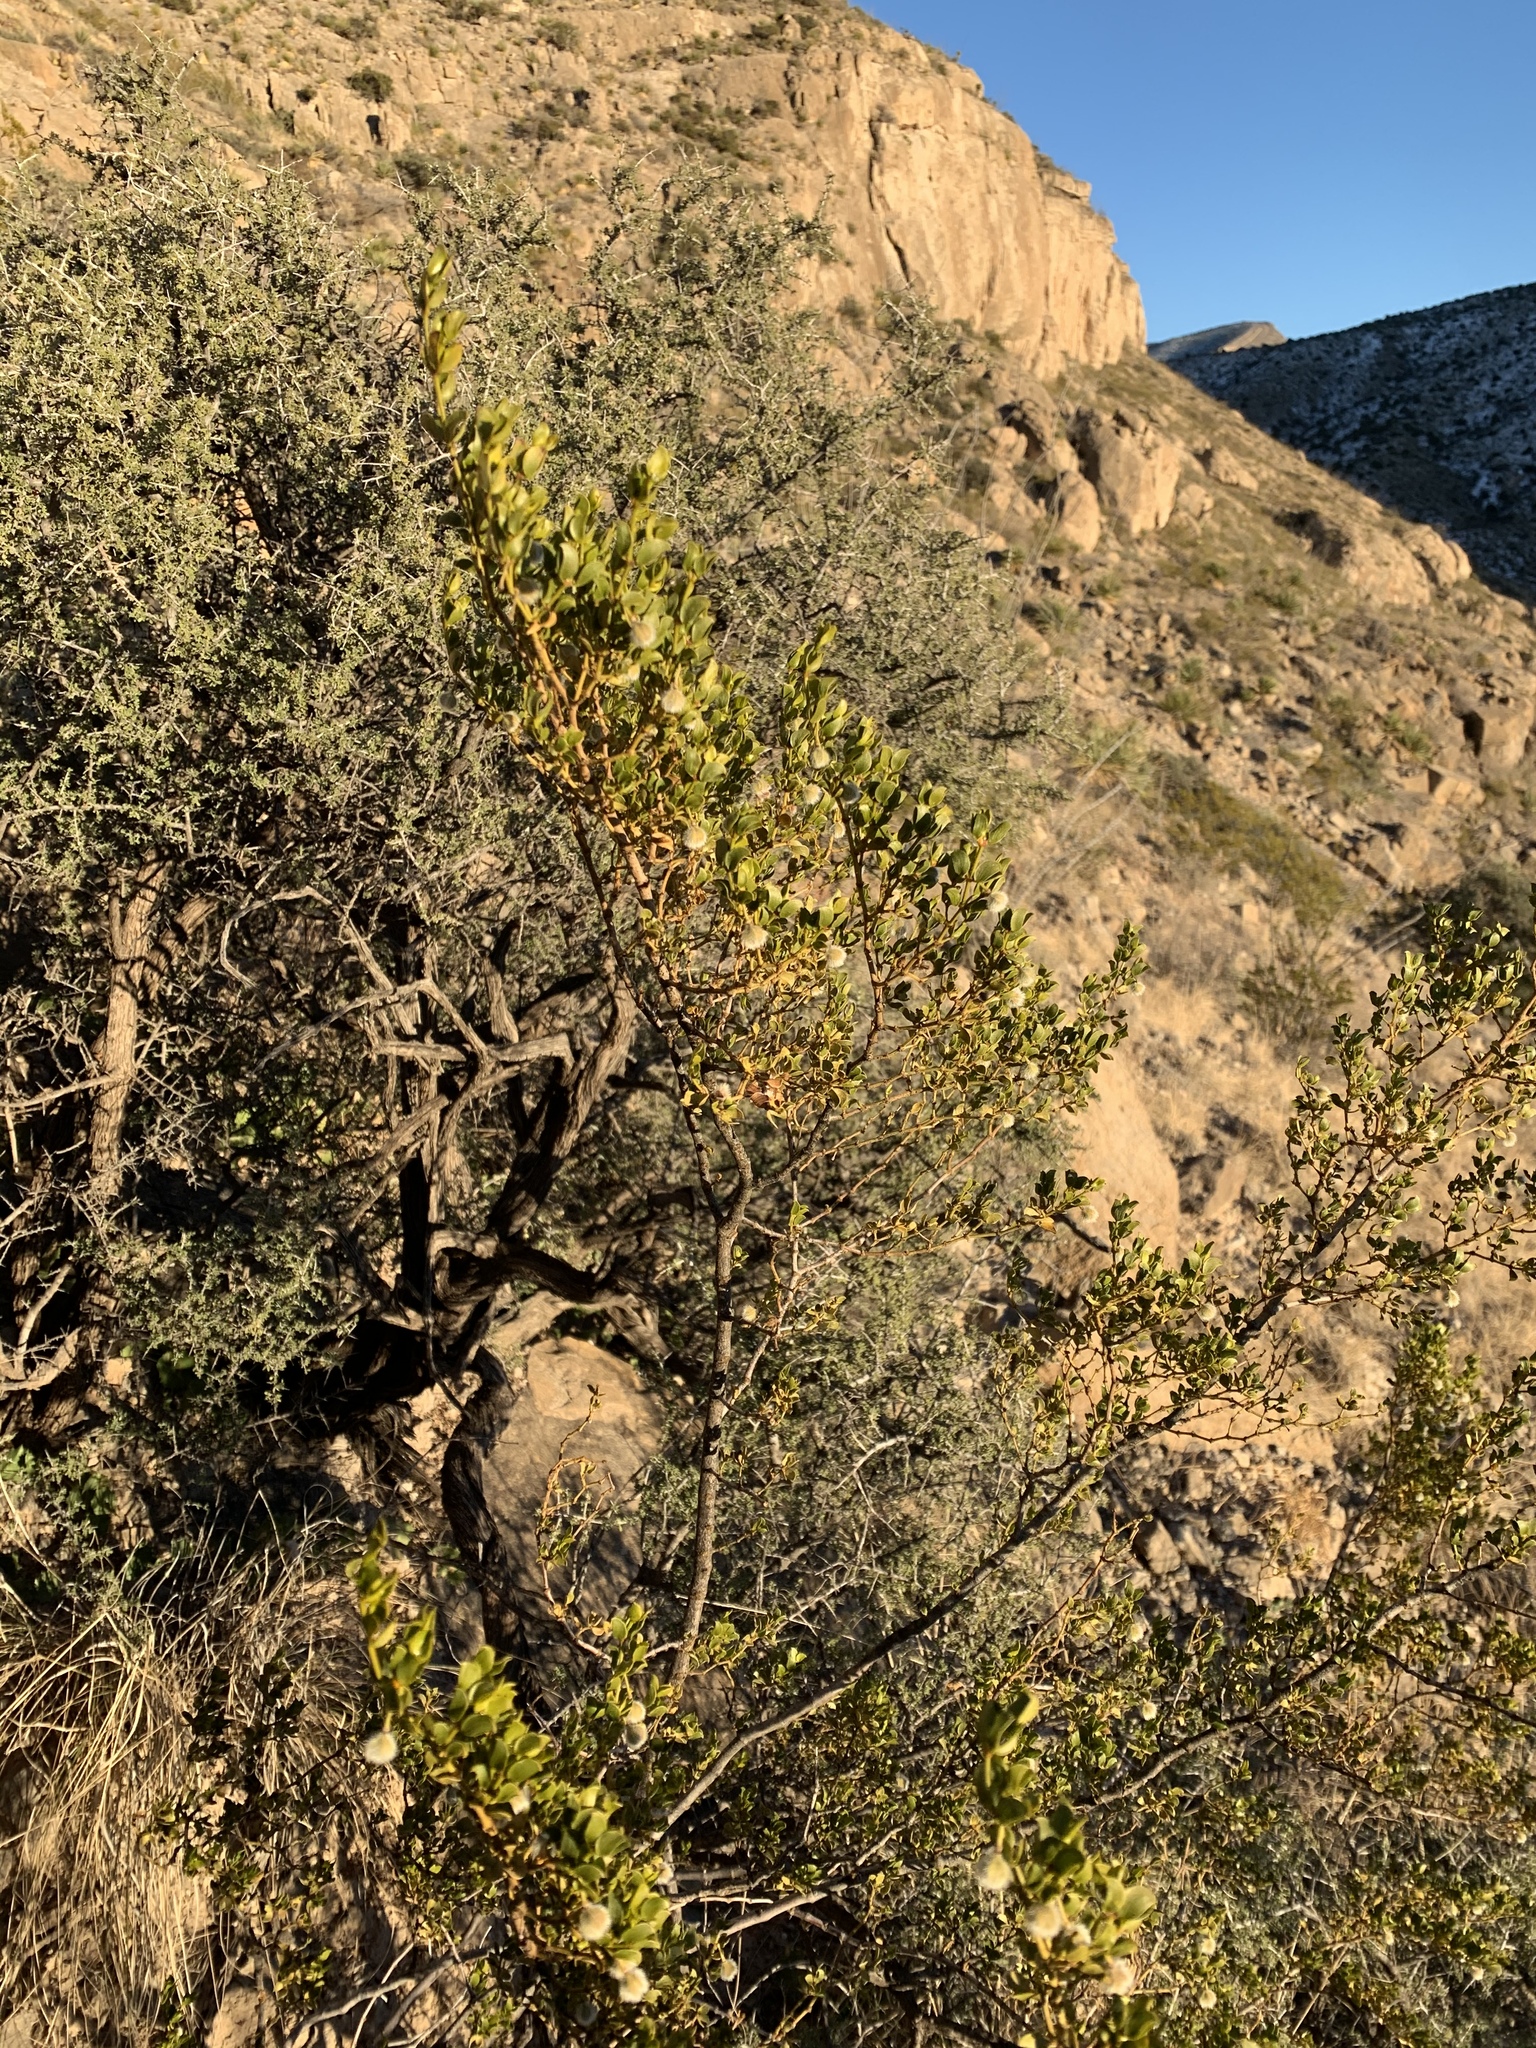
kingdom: Plantae
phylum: Tracheophyta
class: Magnoliopsida
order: Zygophyllales
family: Zygophyllaceae
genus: Larrea
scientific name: Larrea tridentata
